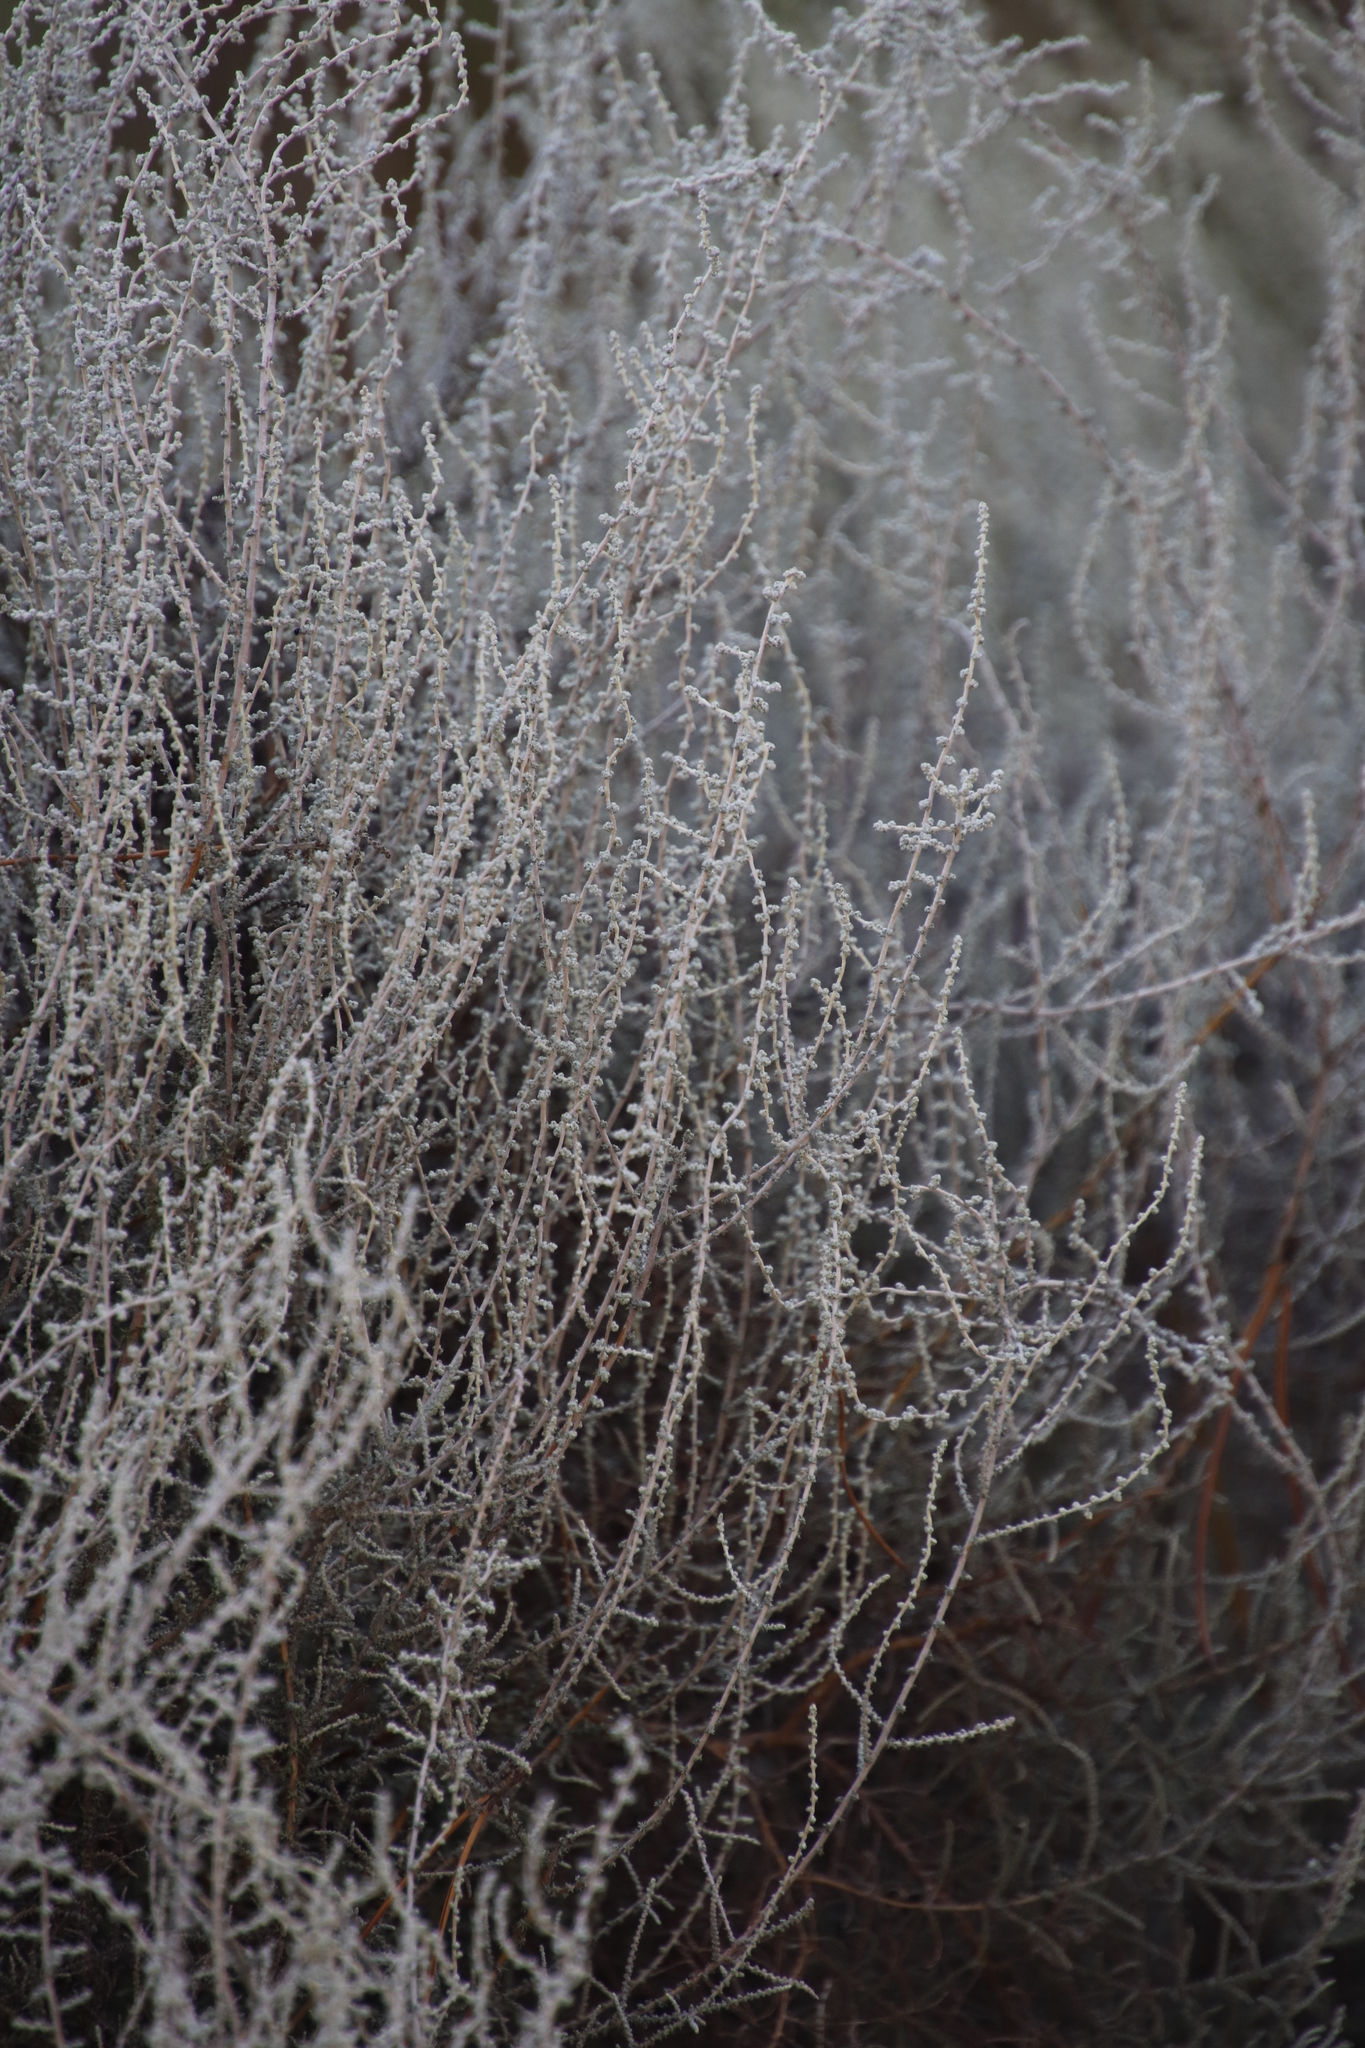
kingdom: Plantae
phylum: Tracheophyta
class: Magnoliopsida
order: Asterales
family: Asteraceae
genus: Seriphium
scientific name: Seriphium plumosum
